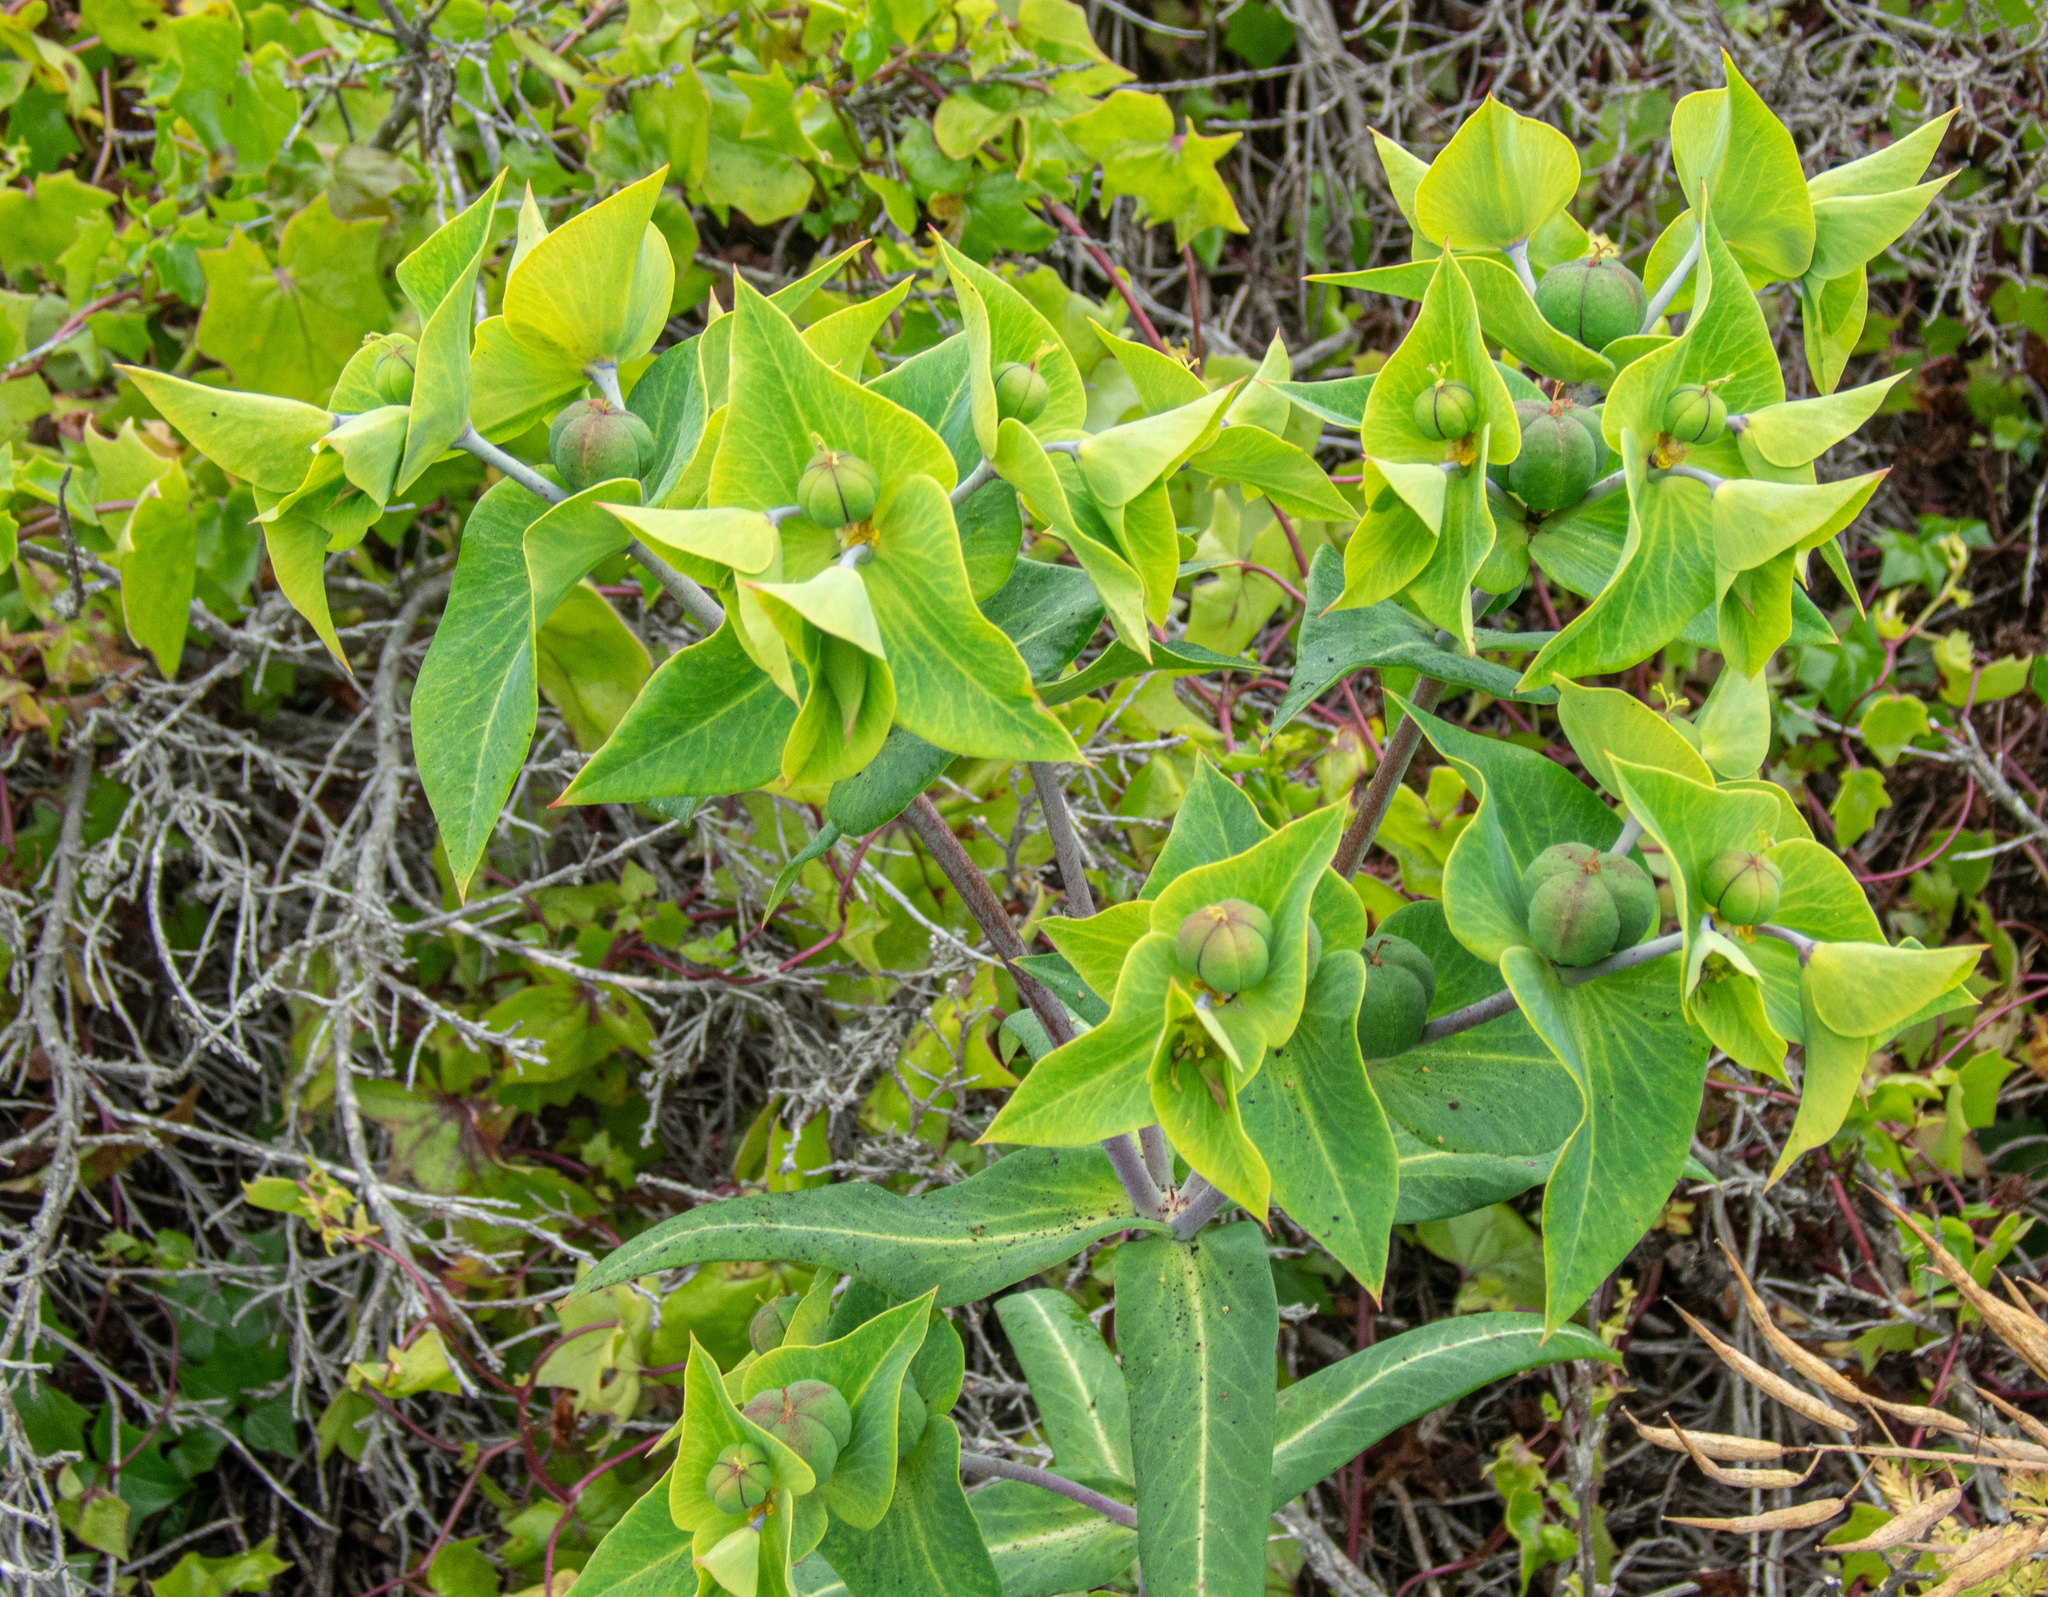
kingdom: Plantae
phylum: Tracheophyta
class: Magnoliopsida
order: Malpighiales
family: Euphorbiaceae
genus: Euphorbia
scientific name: Euphorbia lathyris
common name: Caper spurge
